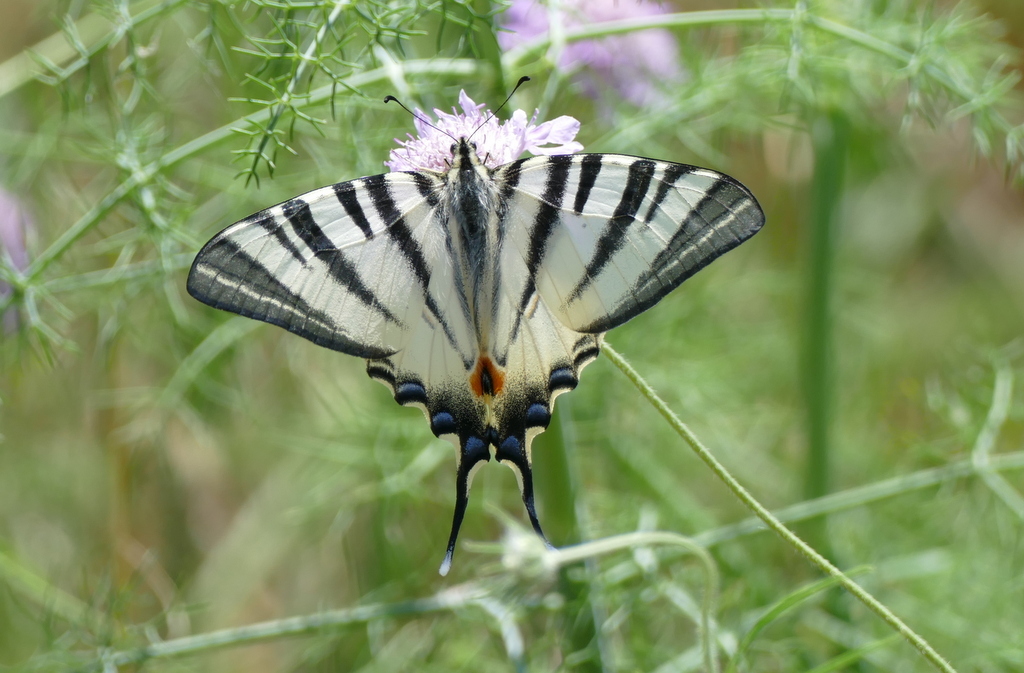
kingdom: Animalia
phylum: Arthropoda
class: Insecta
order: Lepidoptera
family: Papilionidae
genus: Iphiclides
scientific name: Iphiclides podalirius
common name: Scarce swallowtail
